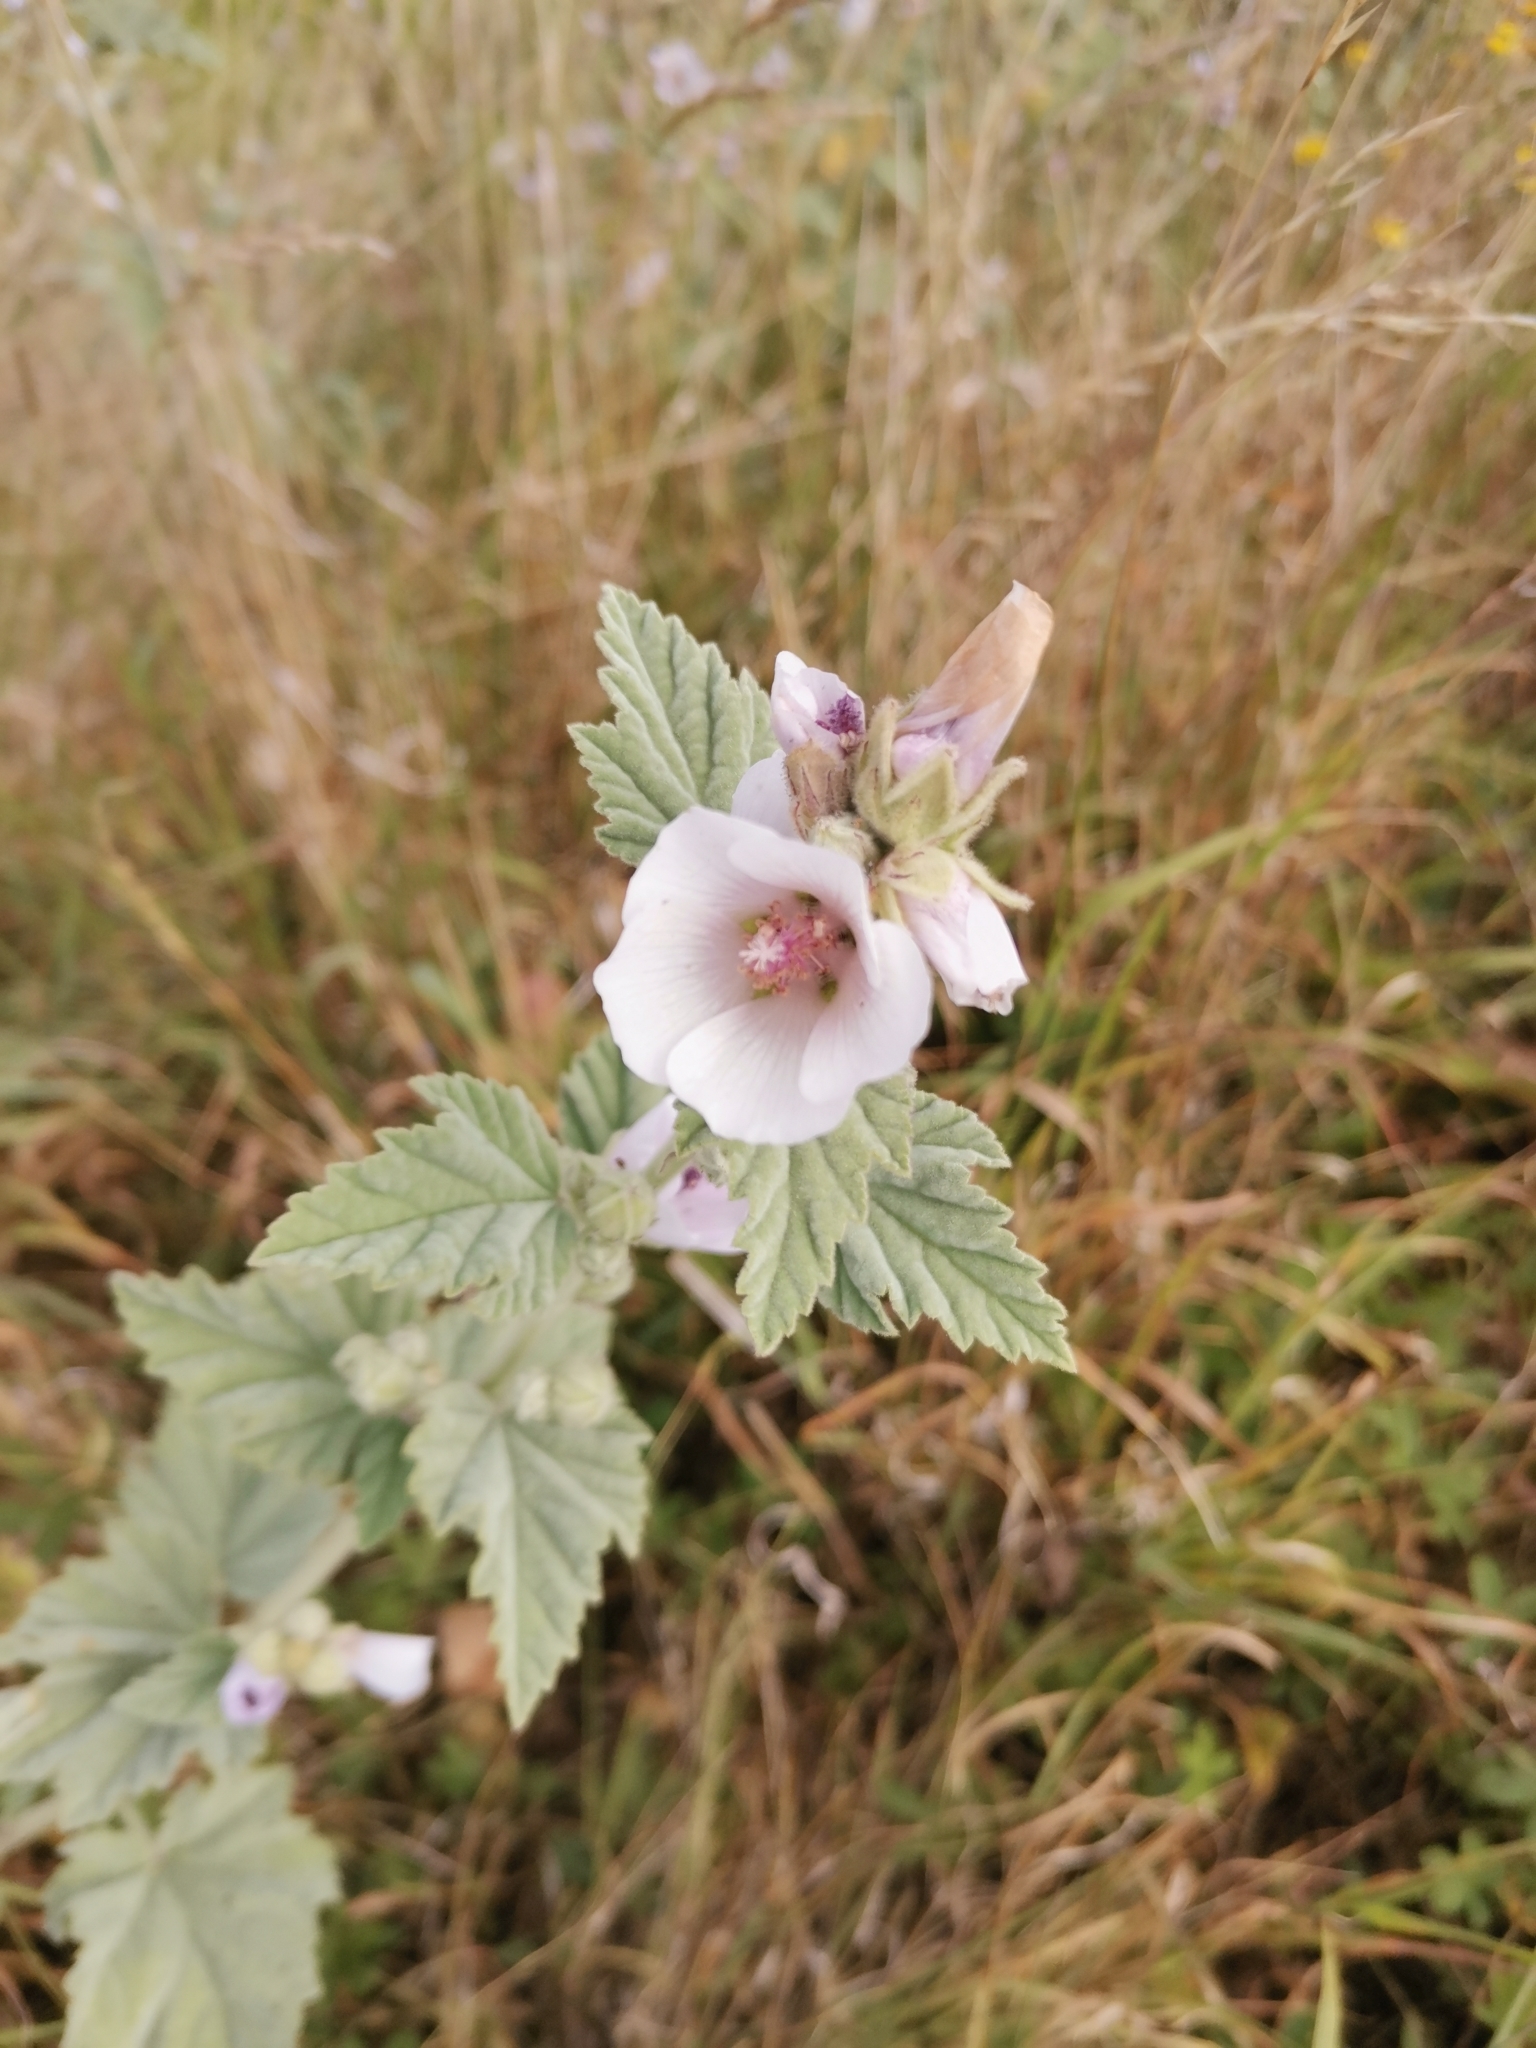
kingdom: Plantae
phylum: Tracheophyta
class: Magnoliopsida
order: Malvales
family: Malvaceae
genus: Althaea
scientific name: Althaea officinalis
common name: Marsh-mallow
